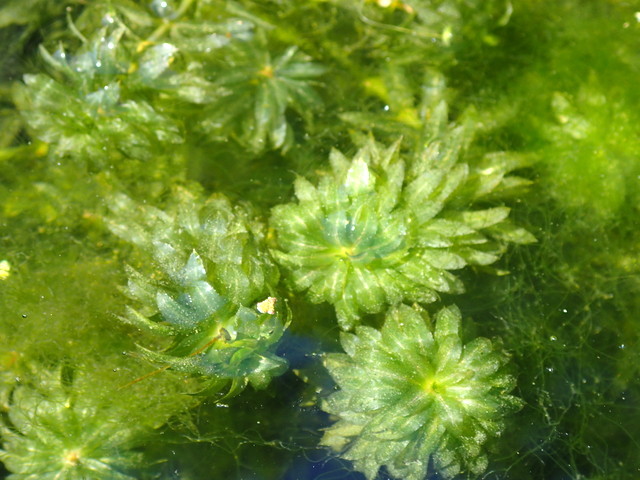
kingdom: Plantae
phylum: Tracheophyta
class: Liliopsida
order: Alismatales
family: Hydrocharitaceae
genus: Hydrilla
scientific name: Hydrilla verticillata
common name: Florida-elodea
